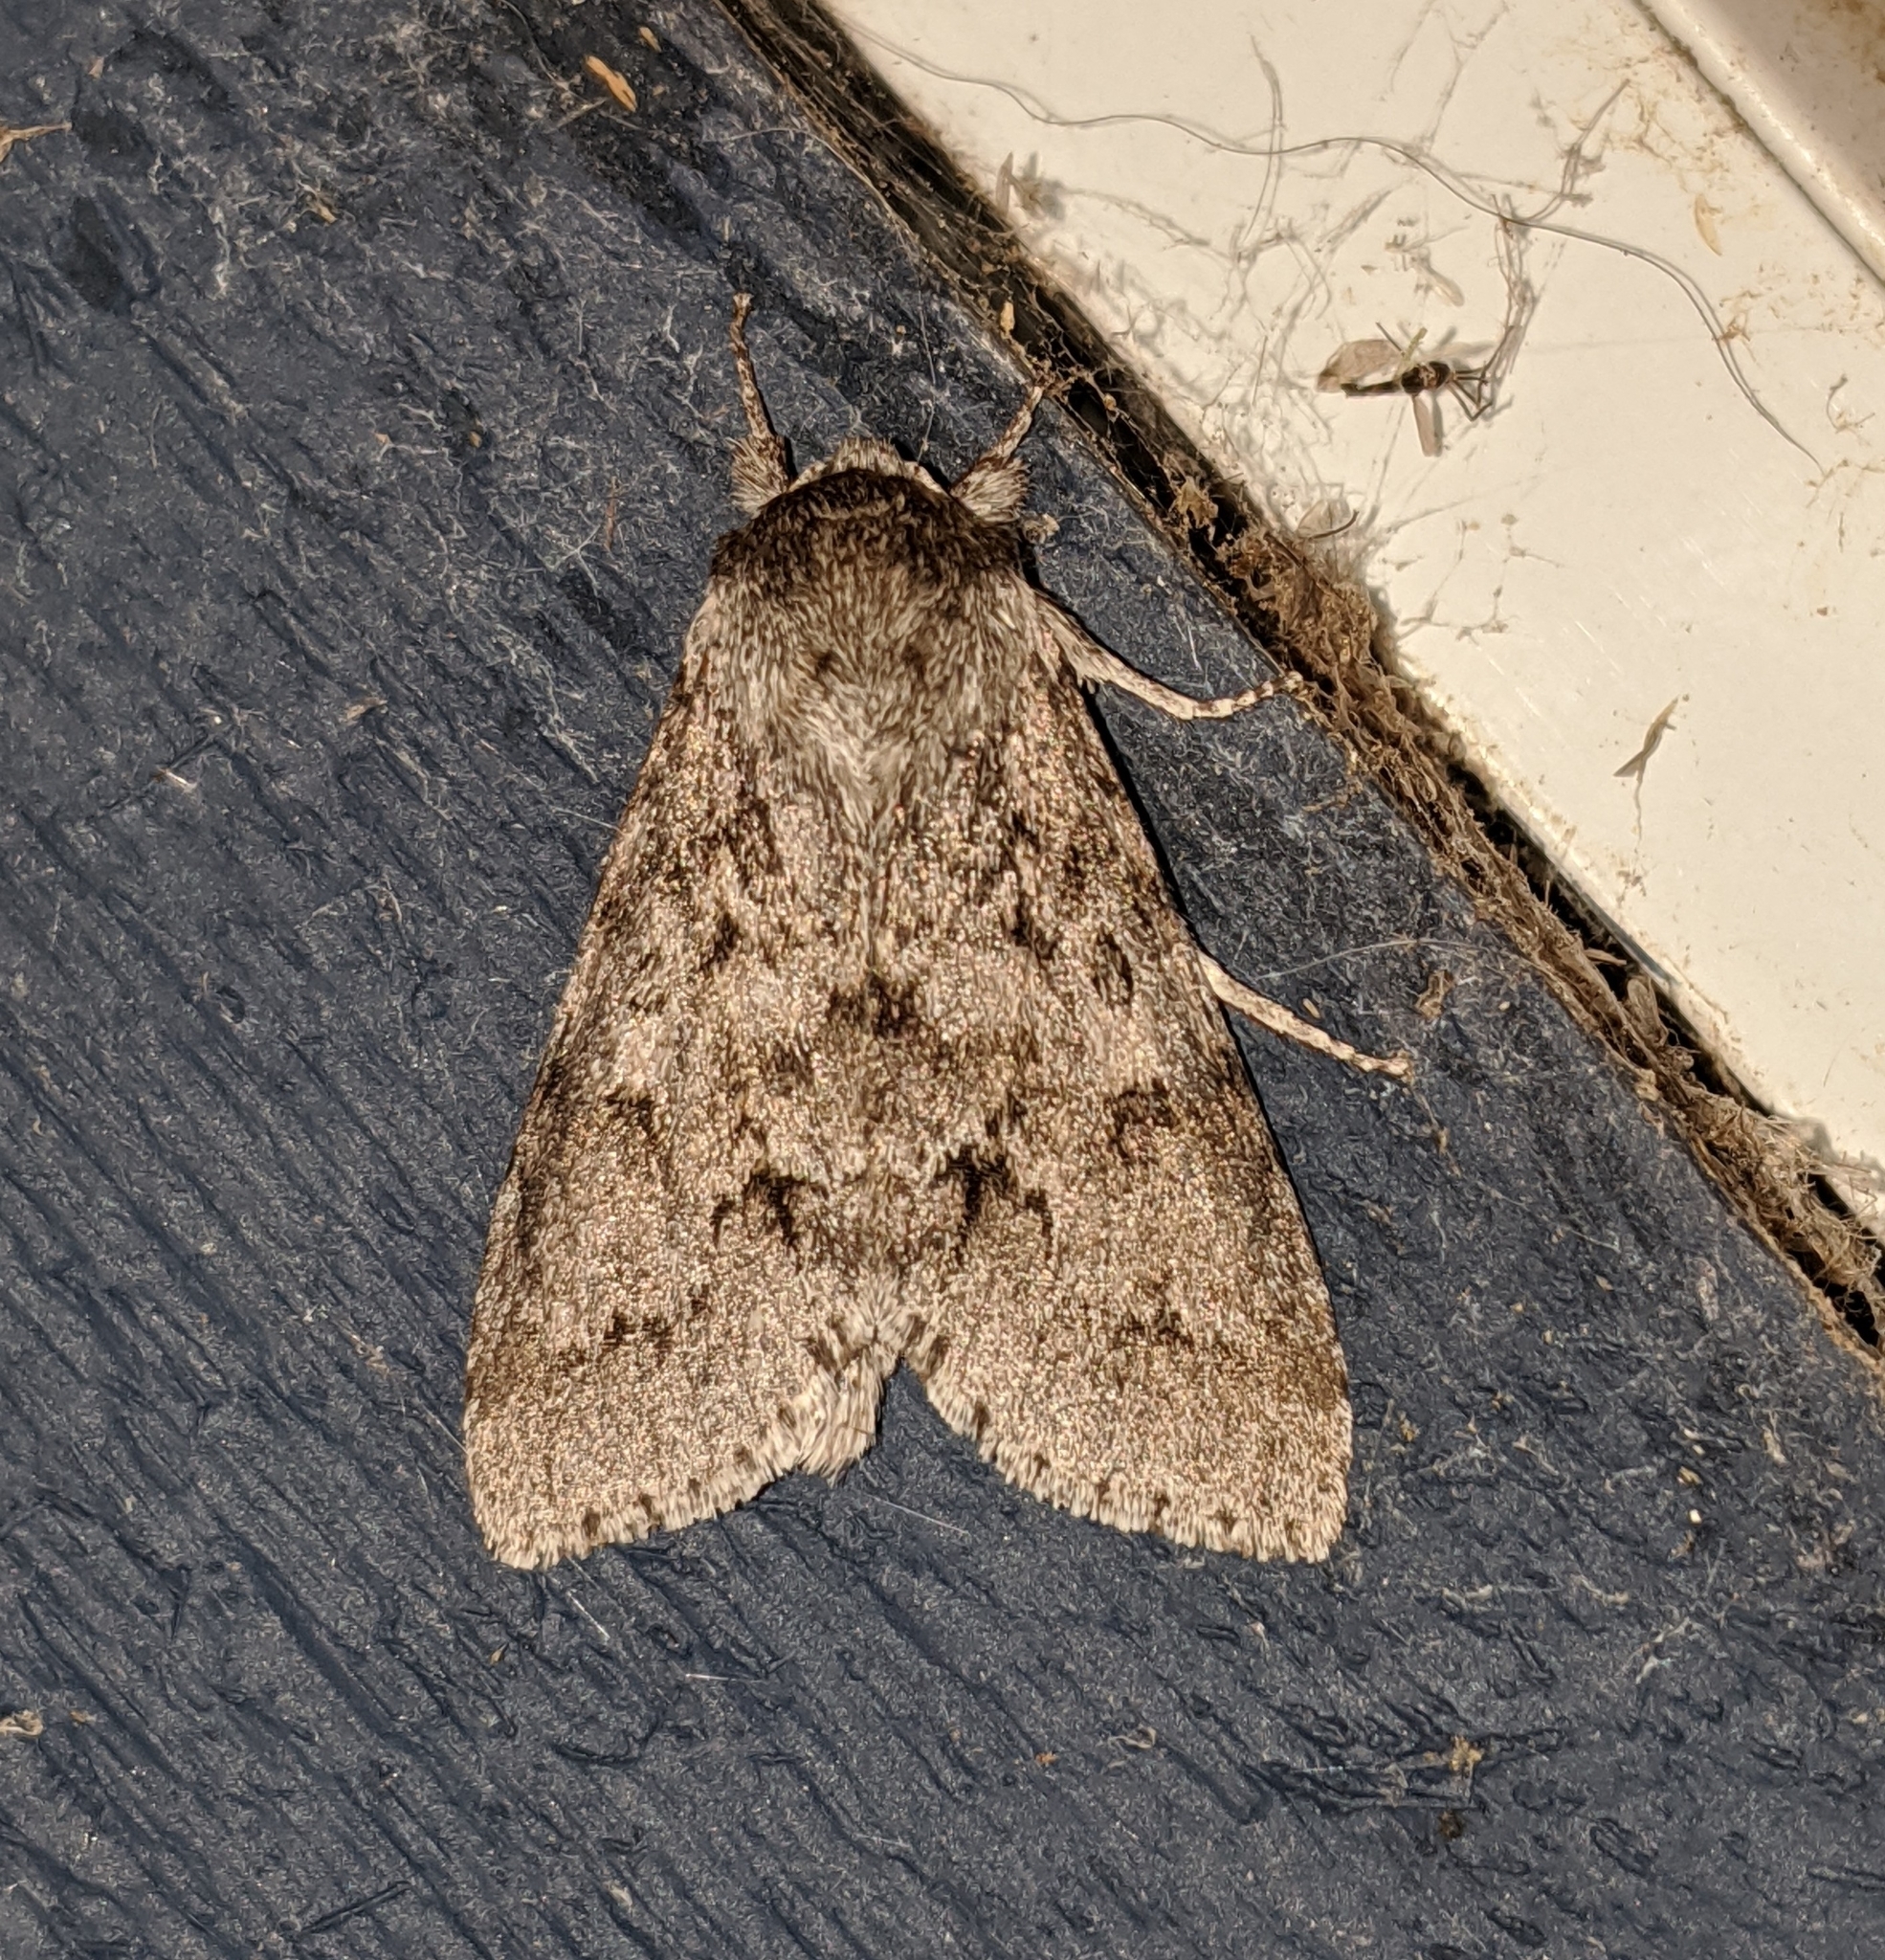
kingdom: Animalia
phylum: Arthropoda
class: Insecta
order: Lepidoptera
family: Noctuidae
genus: Acronicta
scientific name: Acronicta insita
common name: Large gray dagger
